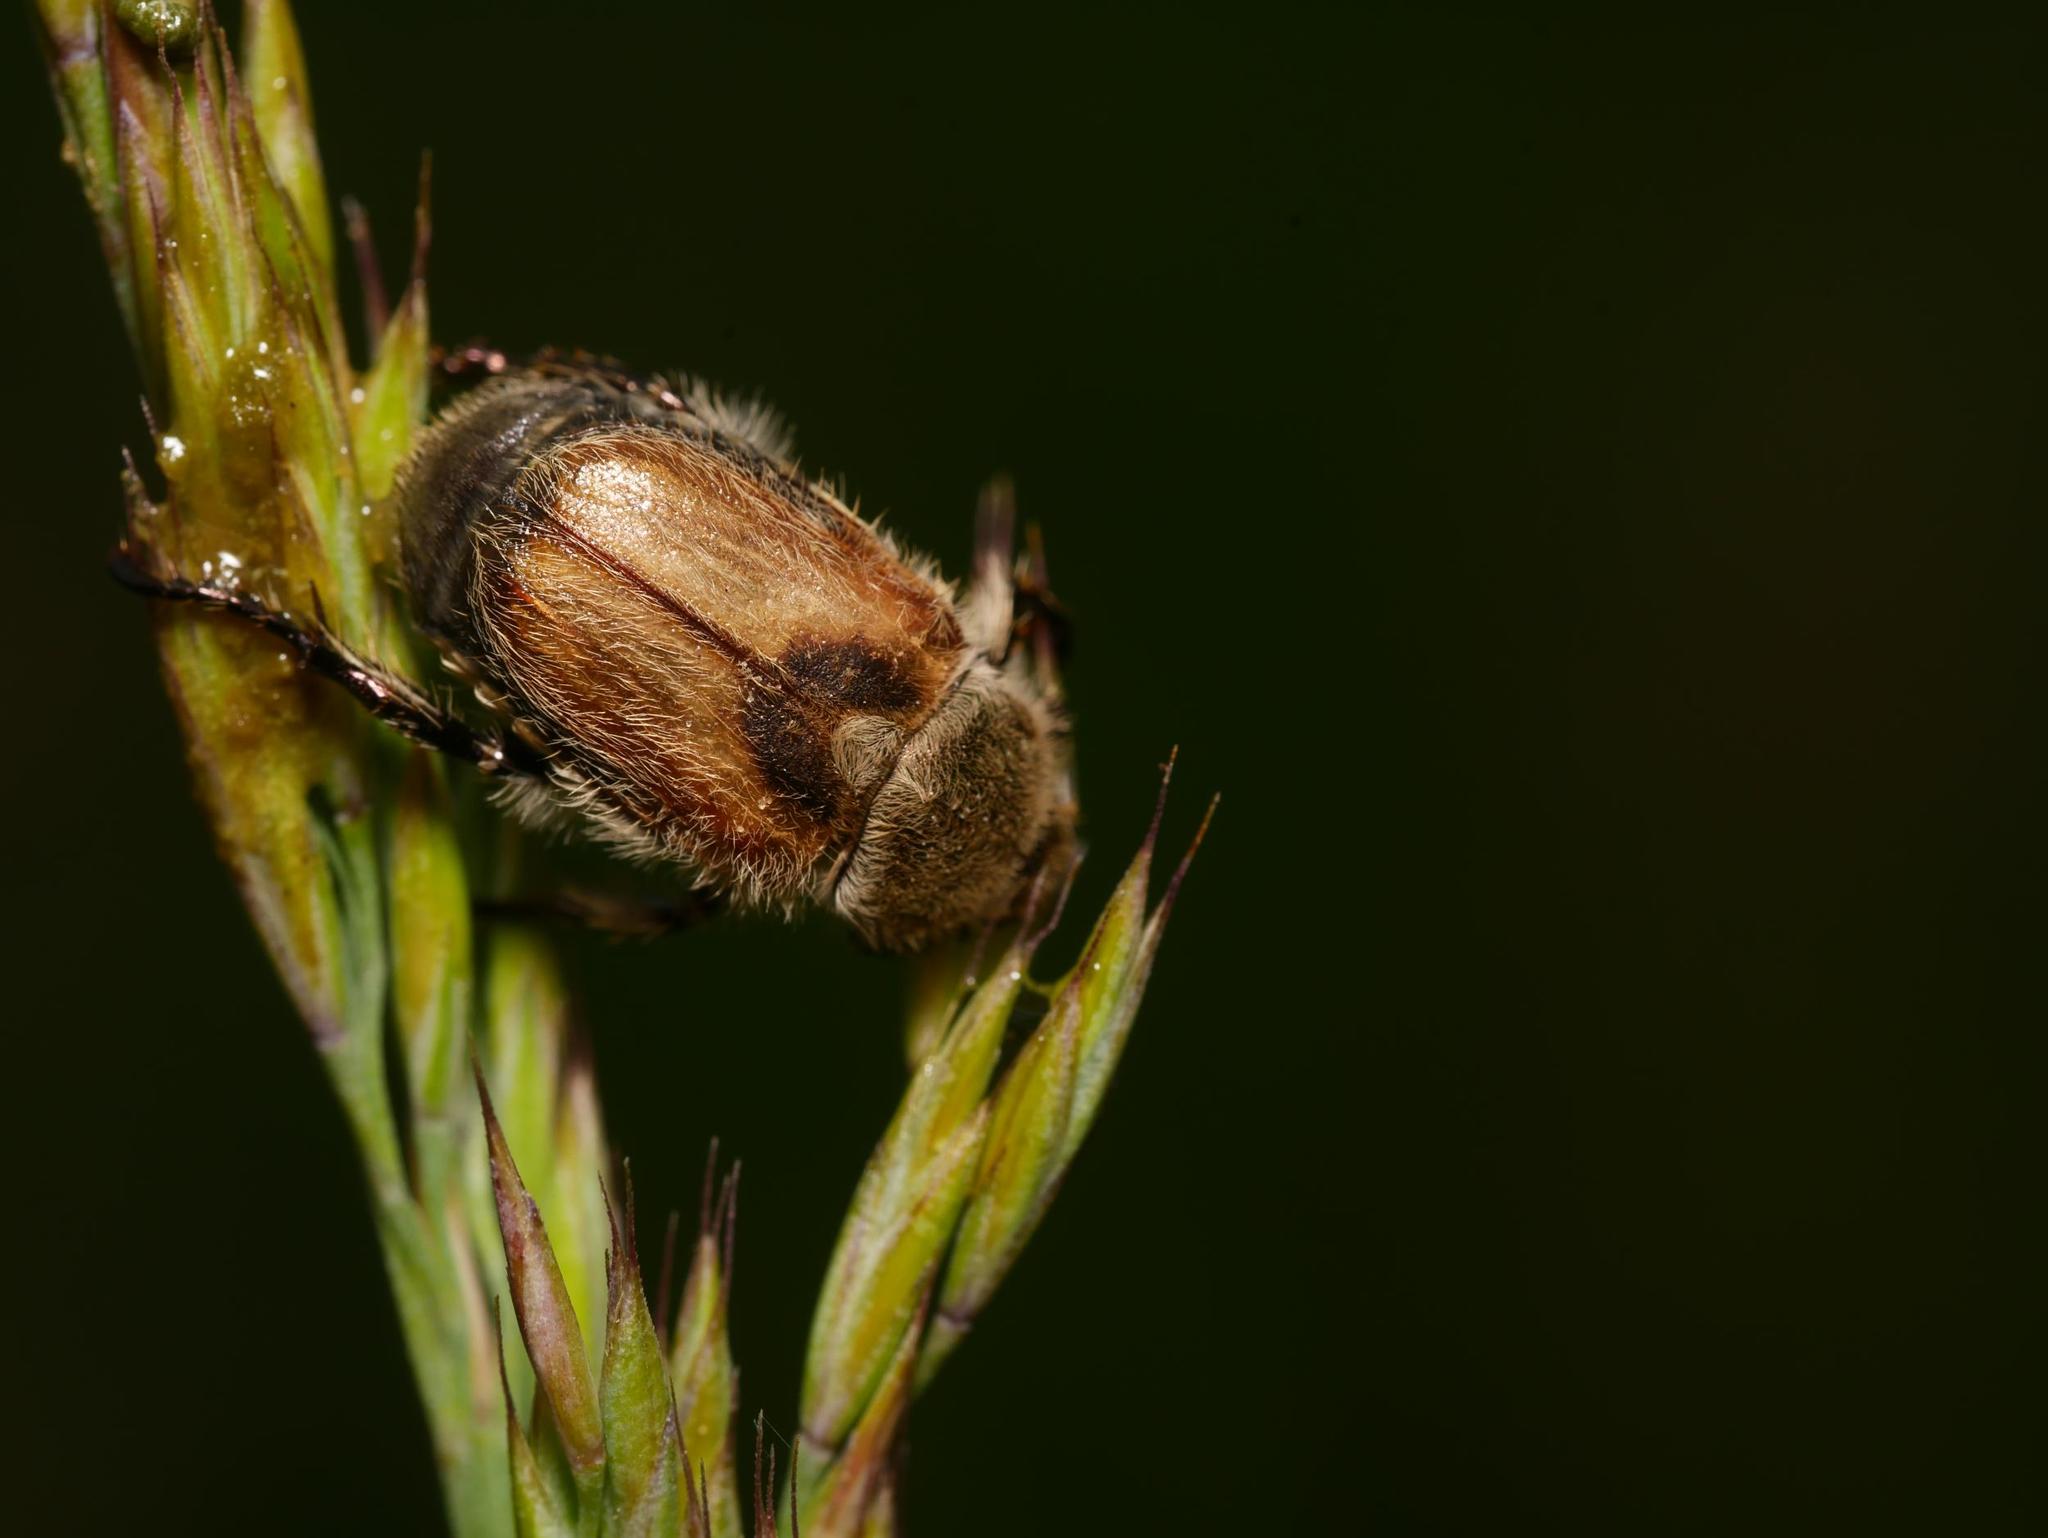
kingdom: Animalia
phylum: Arthropoda
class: Insecta
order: Coleoptera
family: Scarabaeidae
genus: Chaetopteroplia
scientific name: Chaetopteroplia segetum
